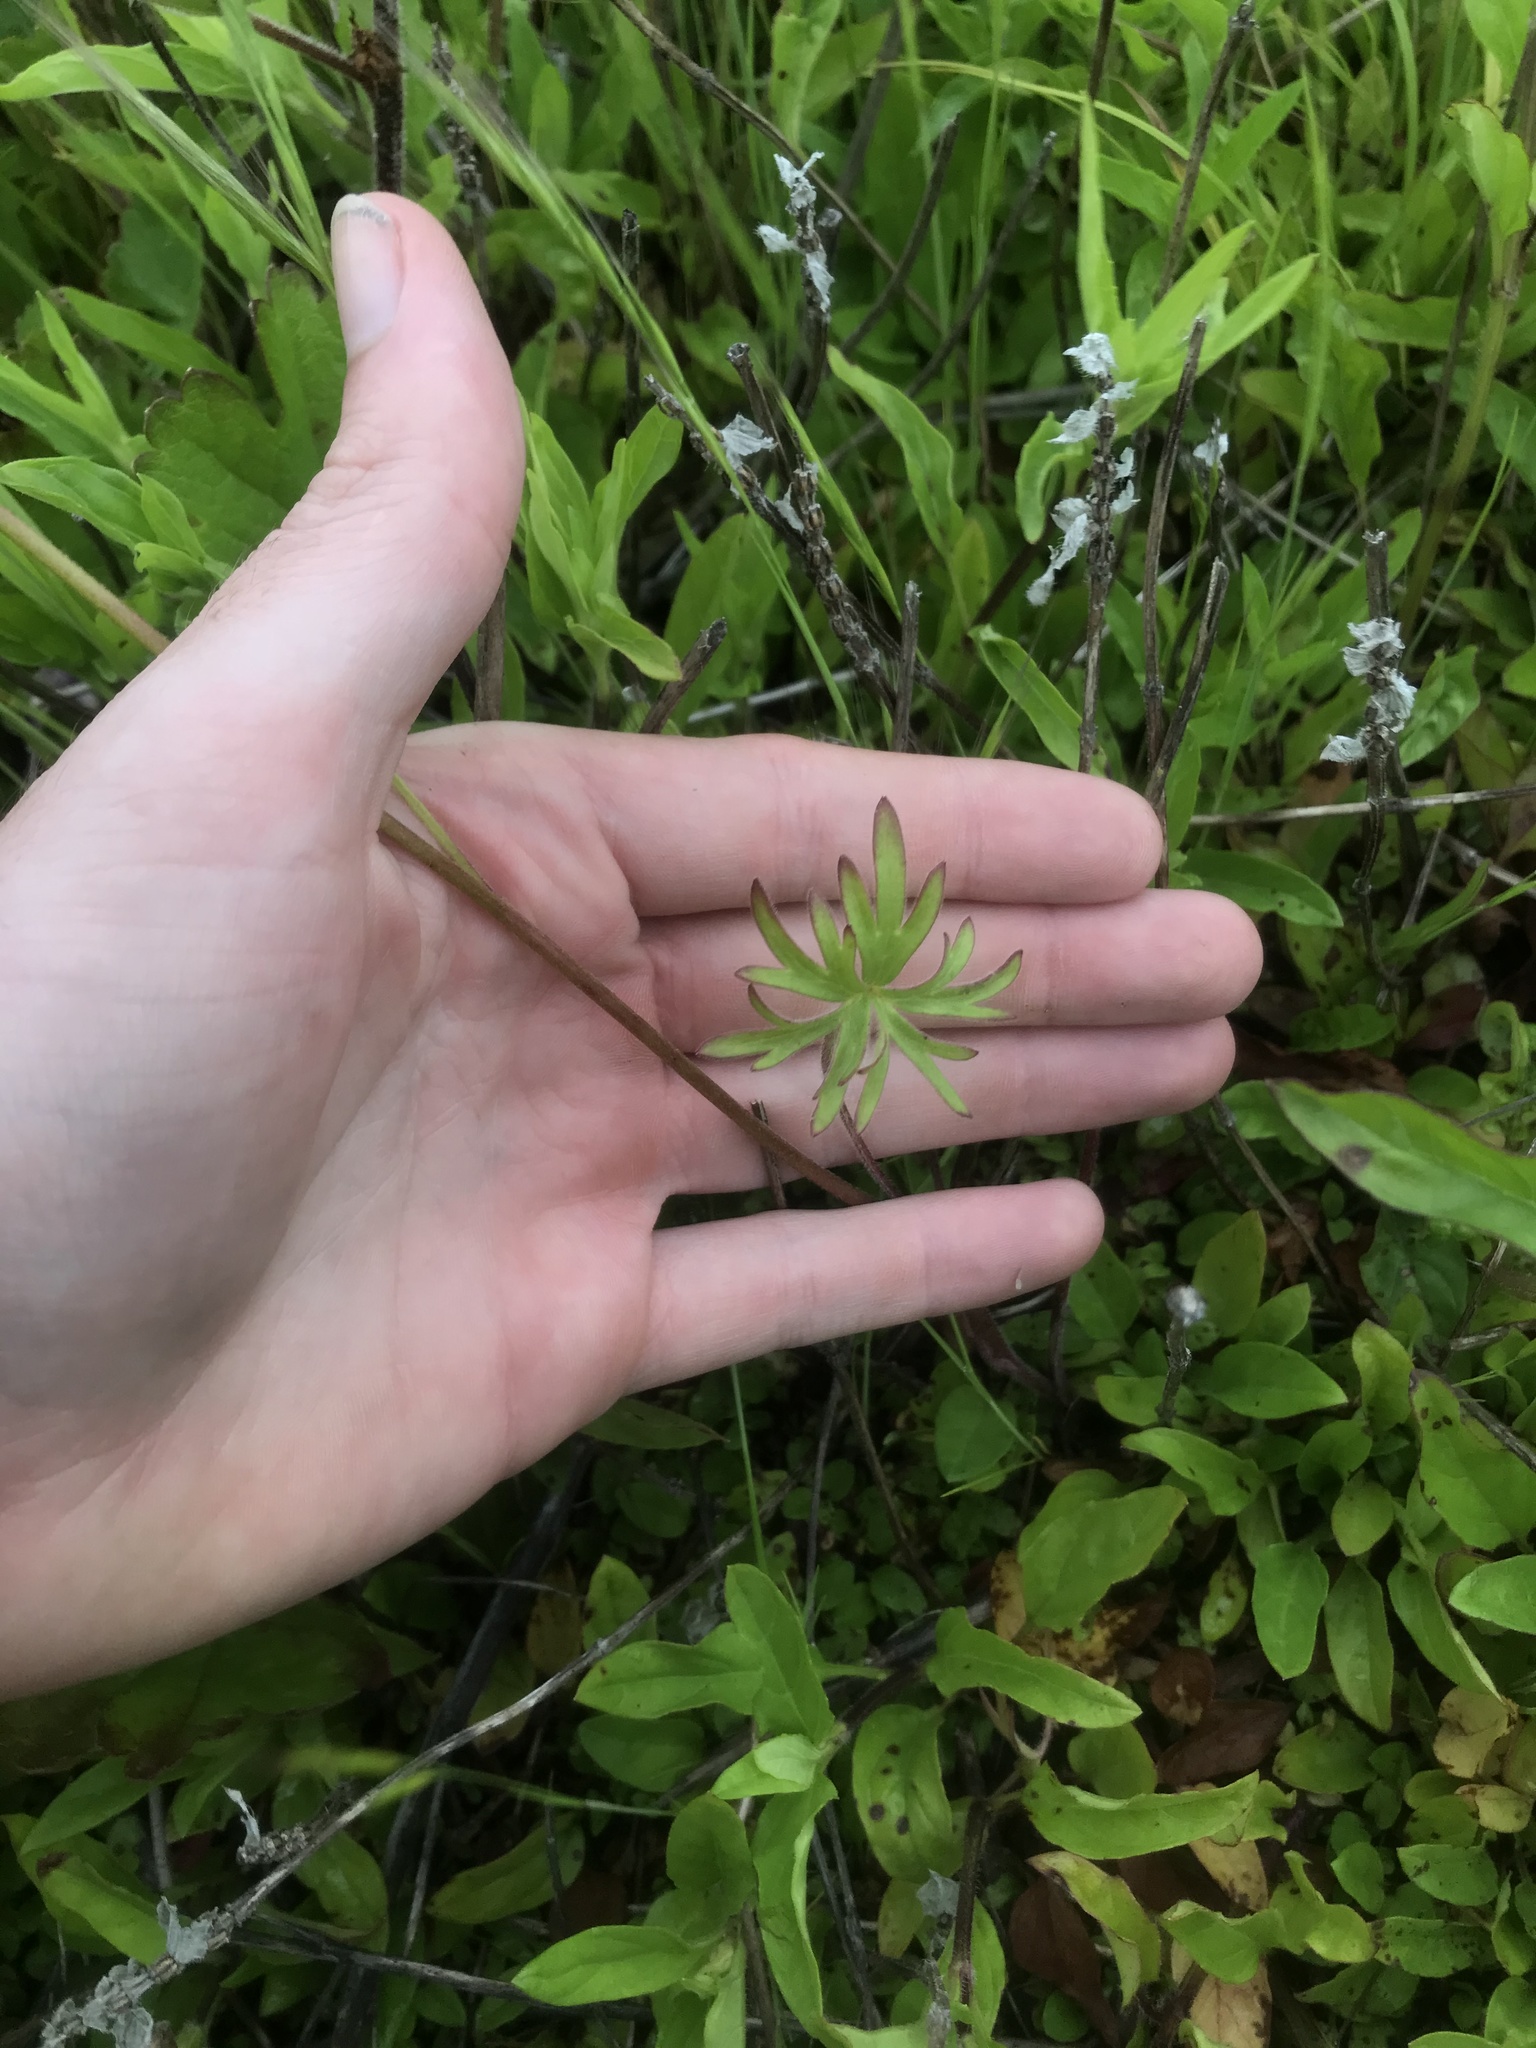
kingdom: Plantae
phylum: Tracheophyta
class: Magnoliopsida
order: Ranunculales
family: Ranunculaceae
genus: Delphinium
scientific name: Delphinium pavonaceum
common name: Peacock larkspur
